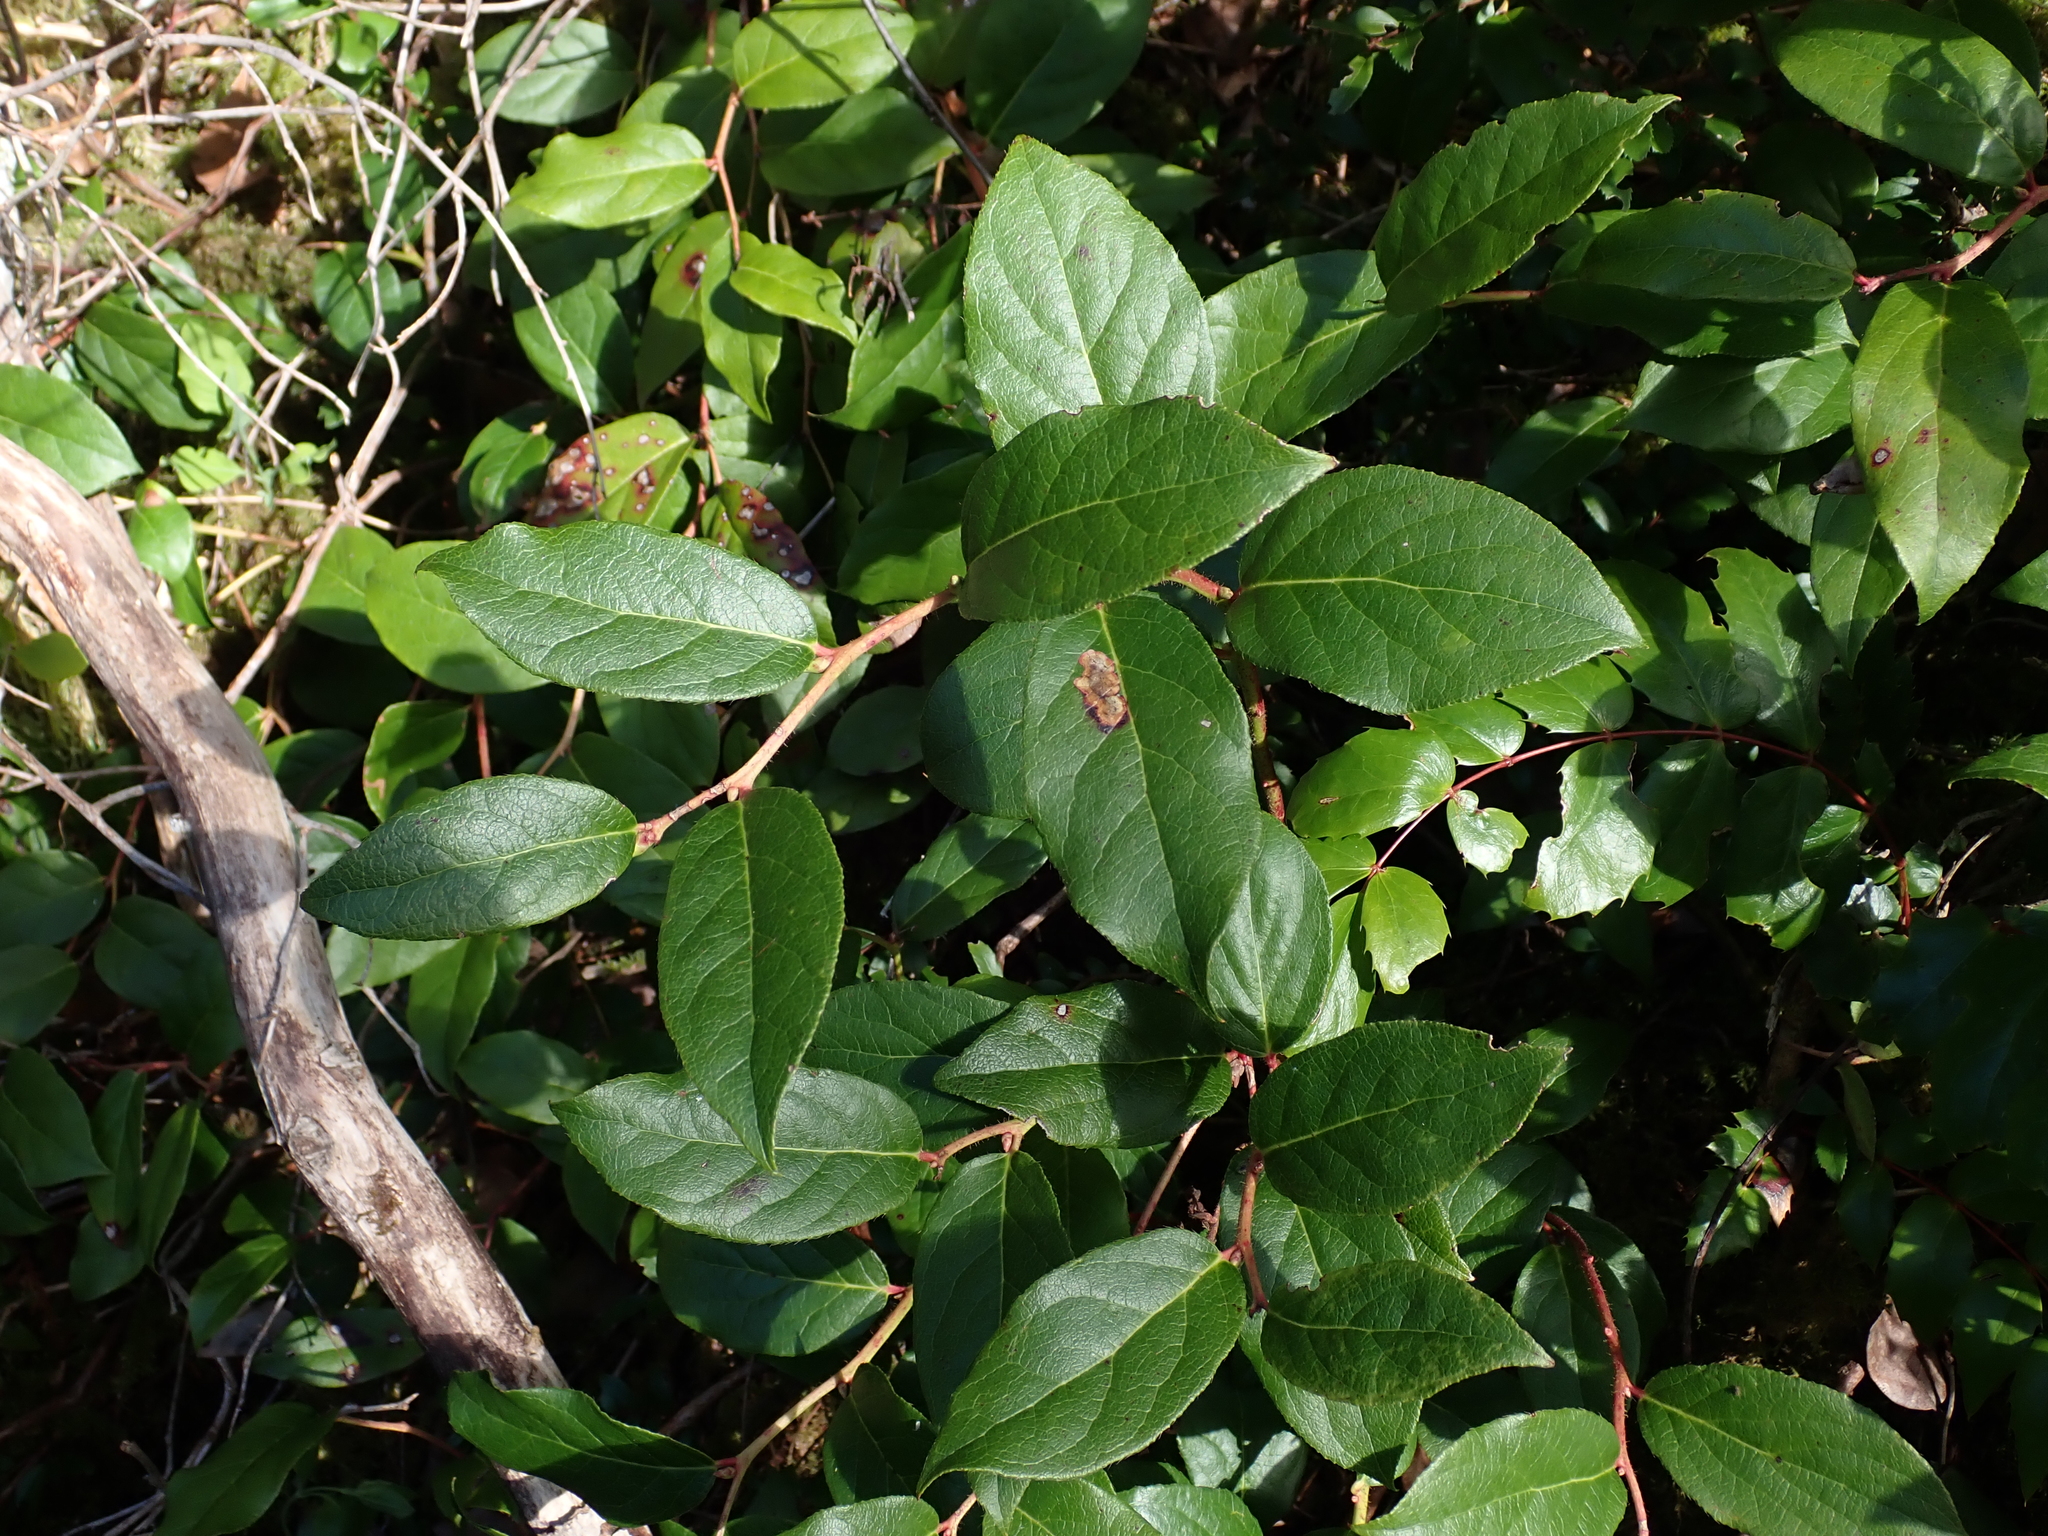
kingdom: Plantae
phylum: Tracheophyta
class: Magnoliopsida
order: Ericales
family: Ericaceae
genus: Gaultheria
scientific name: Gaultheria shallon
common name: Shallon
